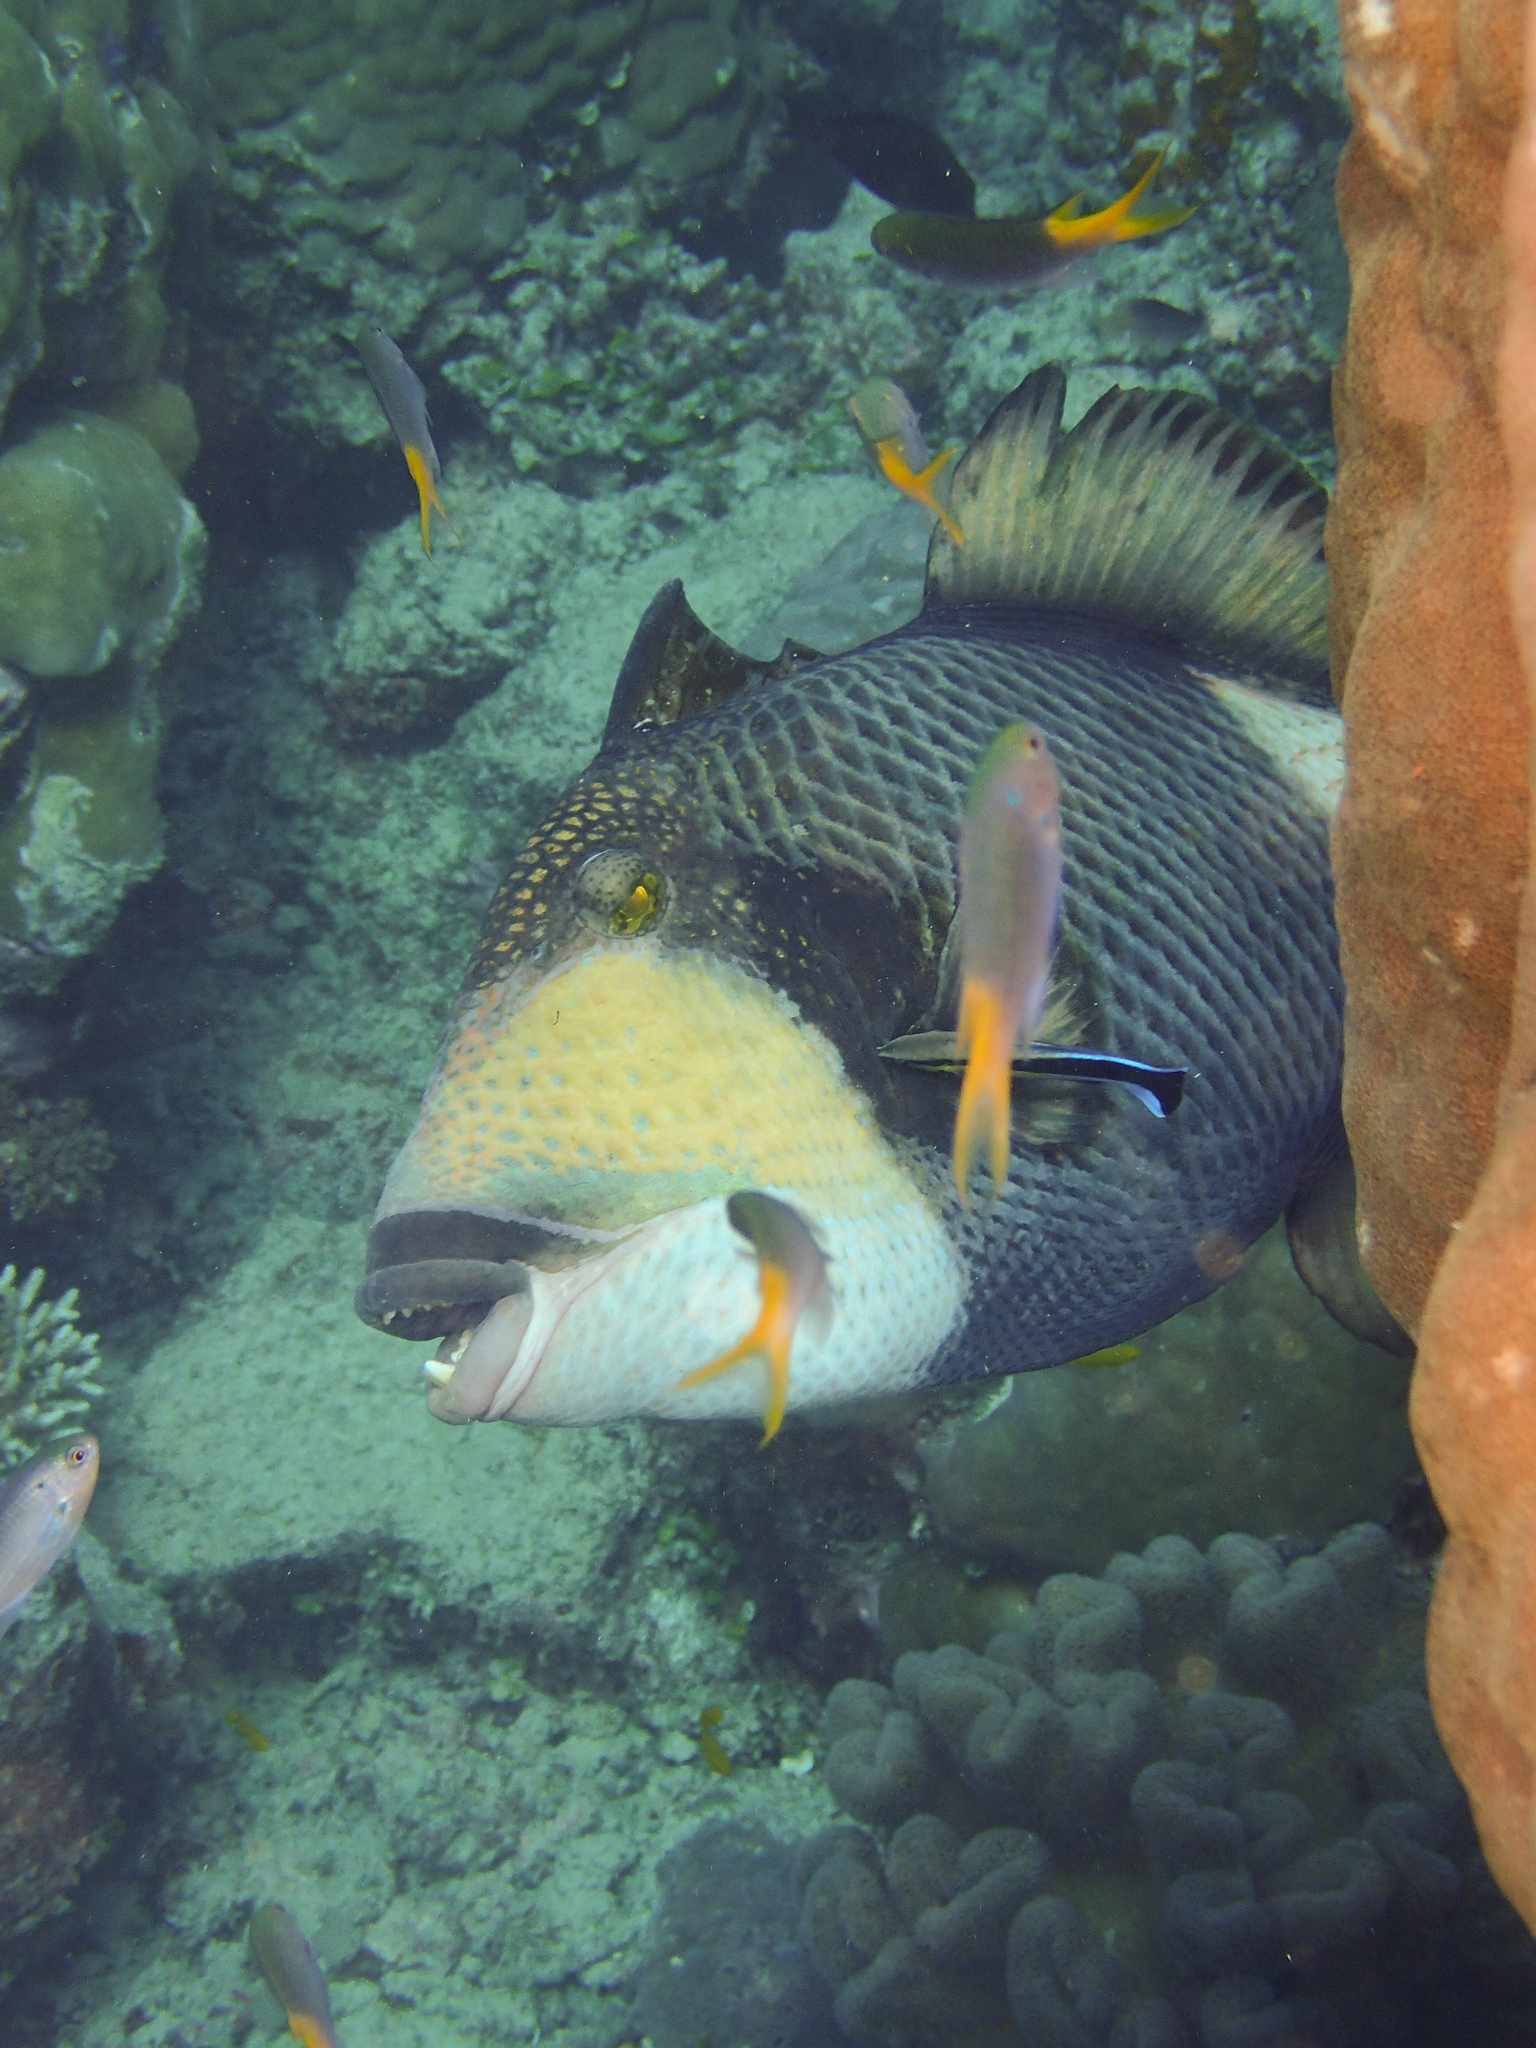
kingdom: Animalia
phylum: Chordata
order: Tetraodontiformes
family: Balistidae
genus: Balistoides
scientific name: Balistoides viridescens
